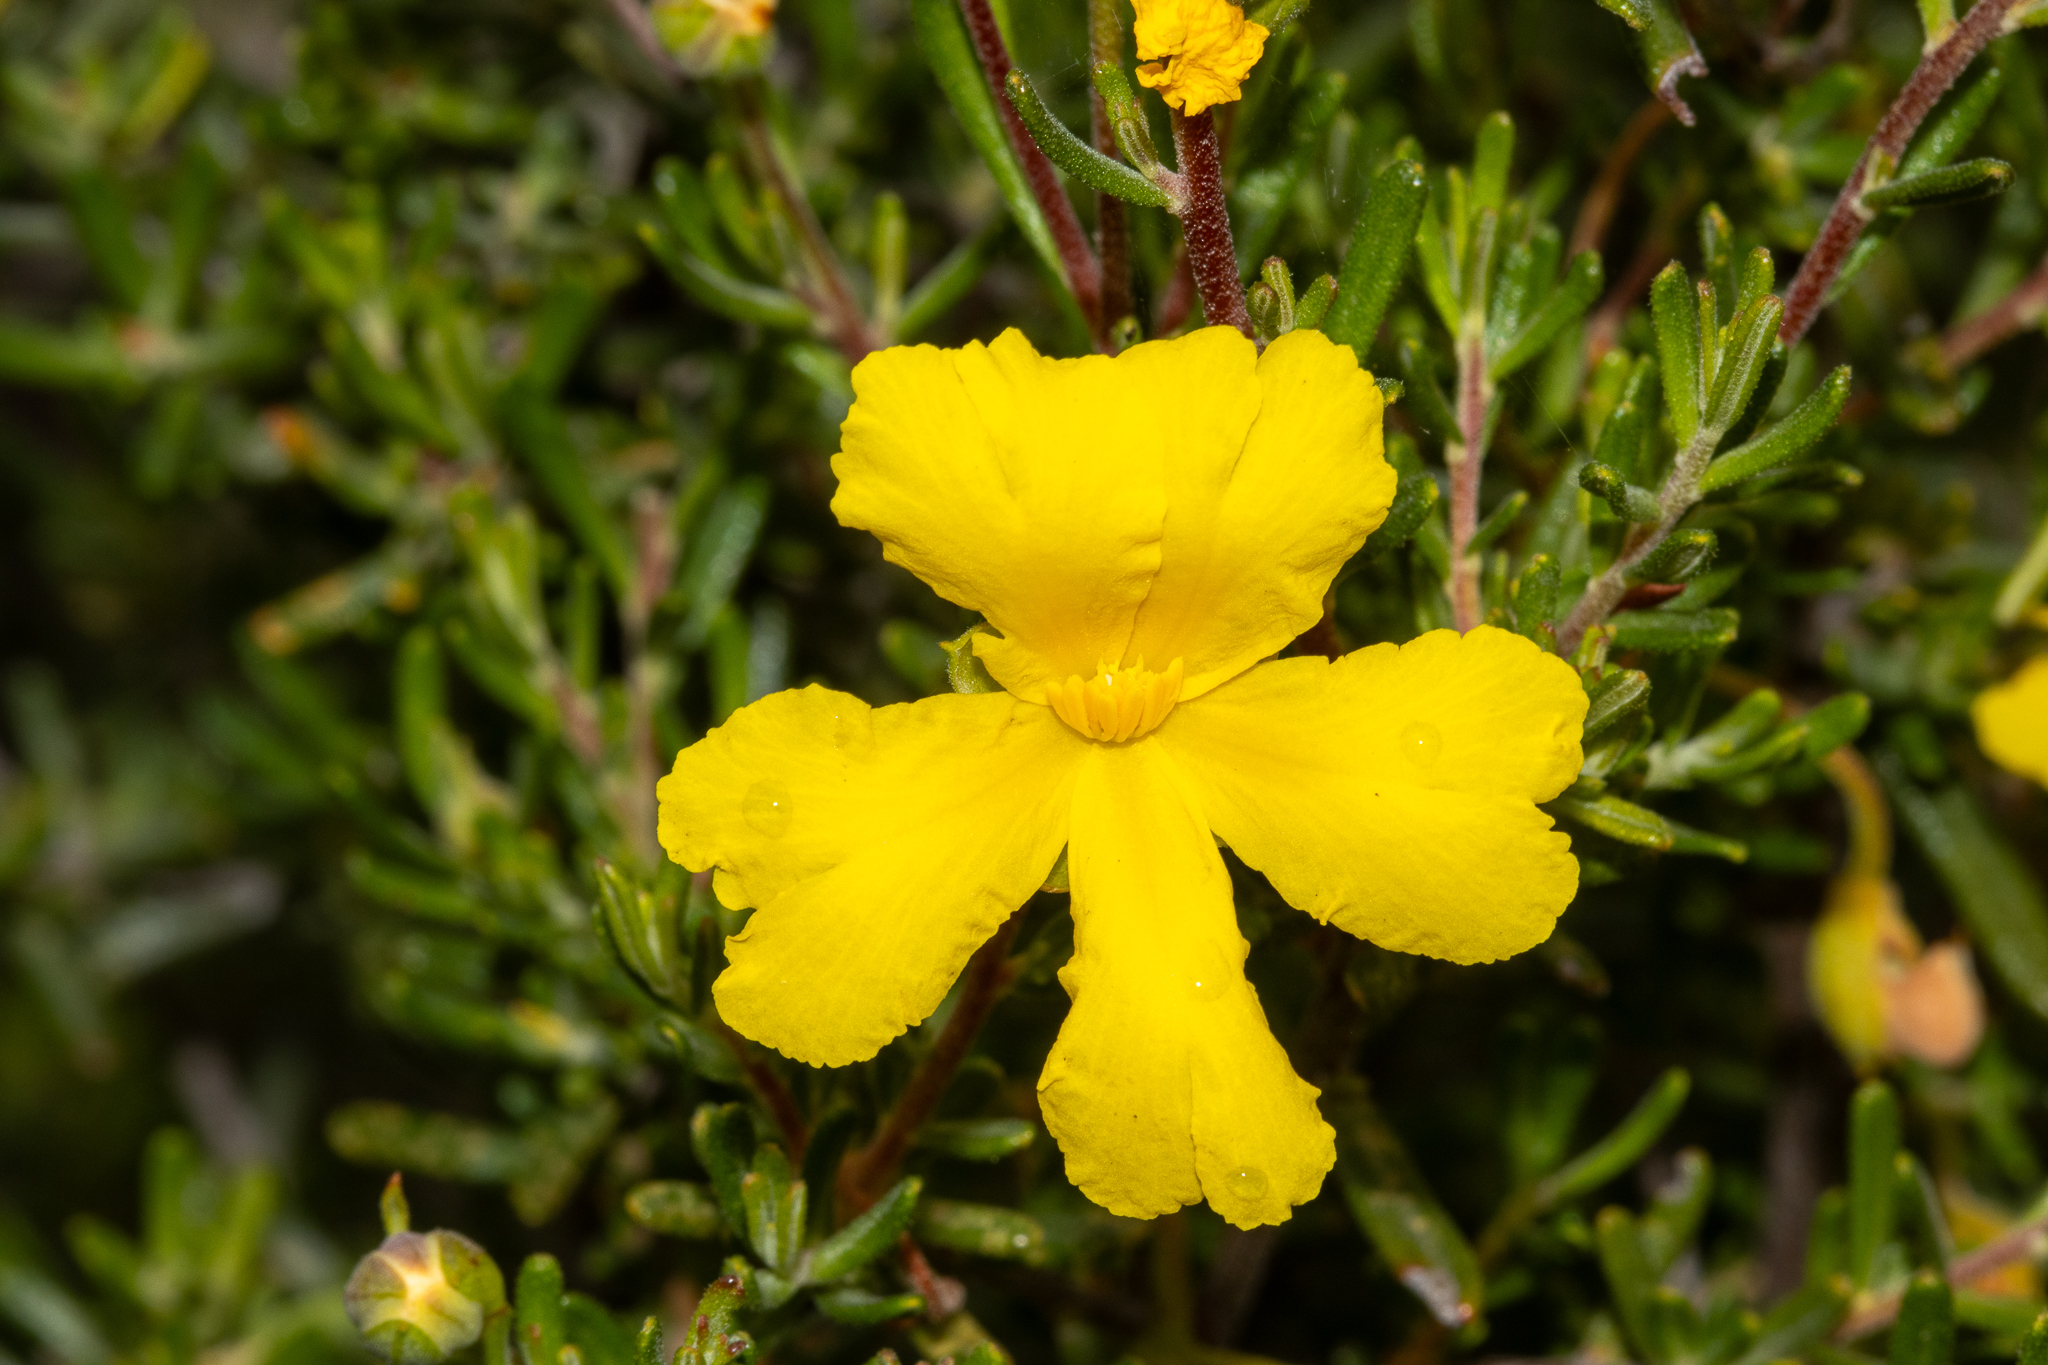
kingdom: Plantae
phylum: Tracheophyta
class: Magnoliopsida
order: Dilleniales
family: Dilleniaceae
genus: Hibbertia
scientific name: Hibbertia hypericoides
